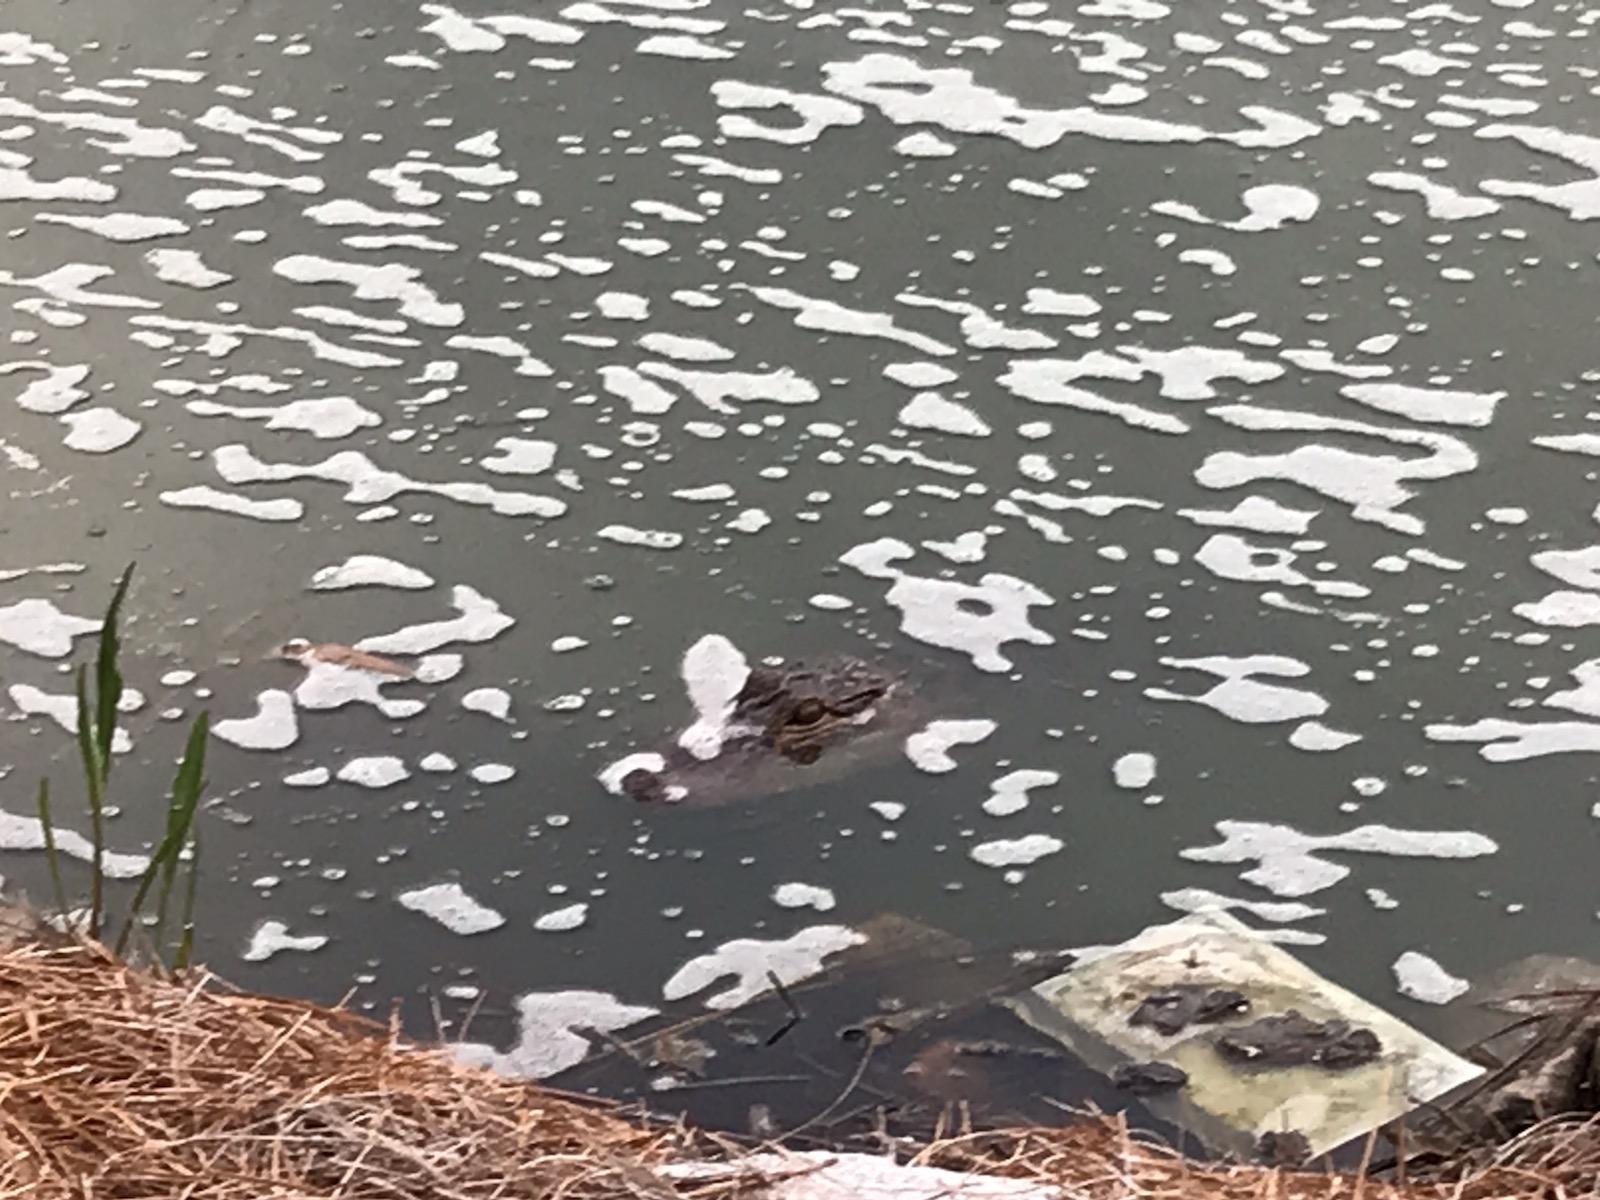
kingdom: Animalia
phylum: Chordata
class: Crocodylia
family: Alligatoridae
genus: Alligator
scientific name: Alligator mississippiensis
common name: American alligator
